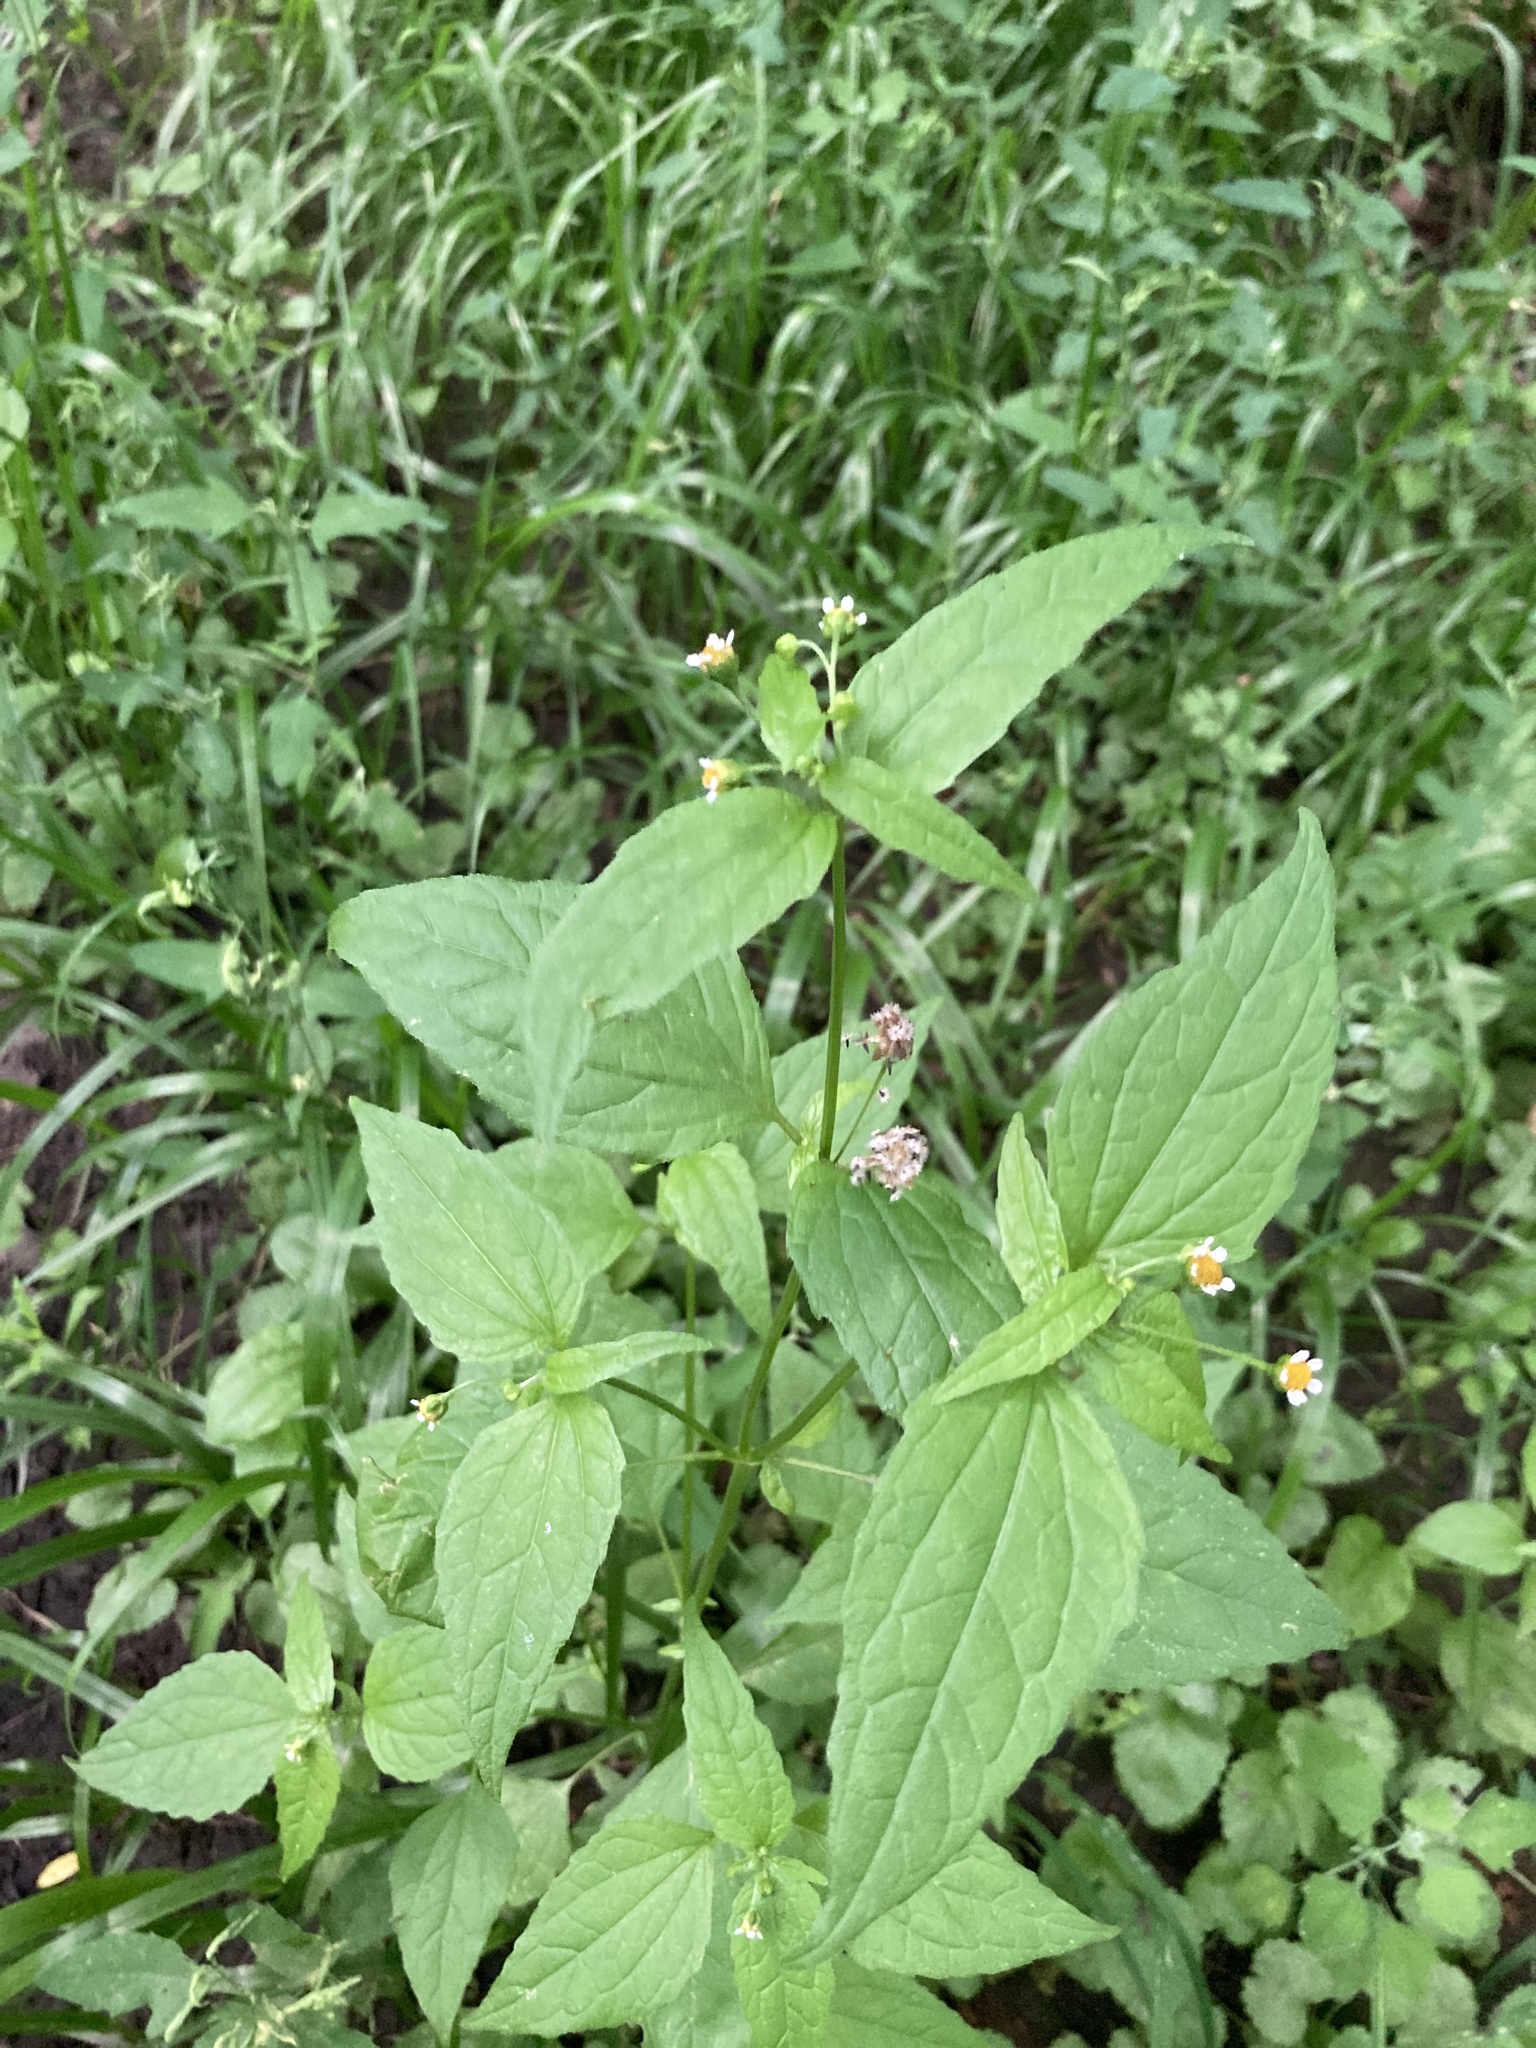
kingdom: Plantae
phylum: Tracheophyta
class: Magnoliopsida
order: Asterales
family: Asteraceae
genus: Galinsoga
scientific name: Galinsoga parviflora
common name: Gallant soldier
